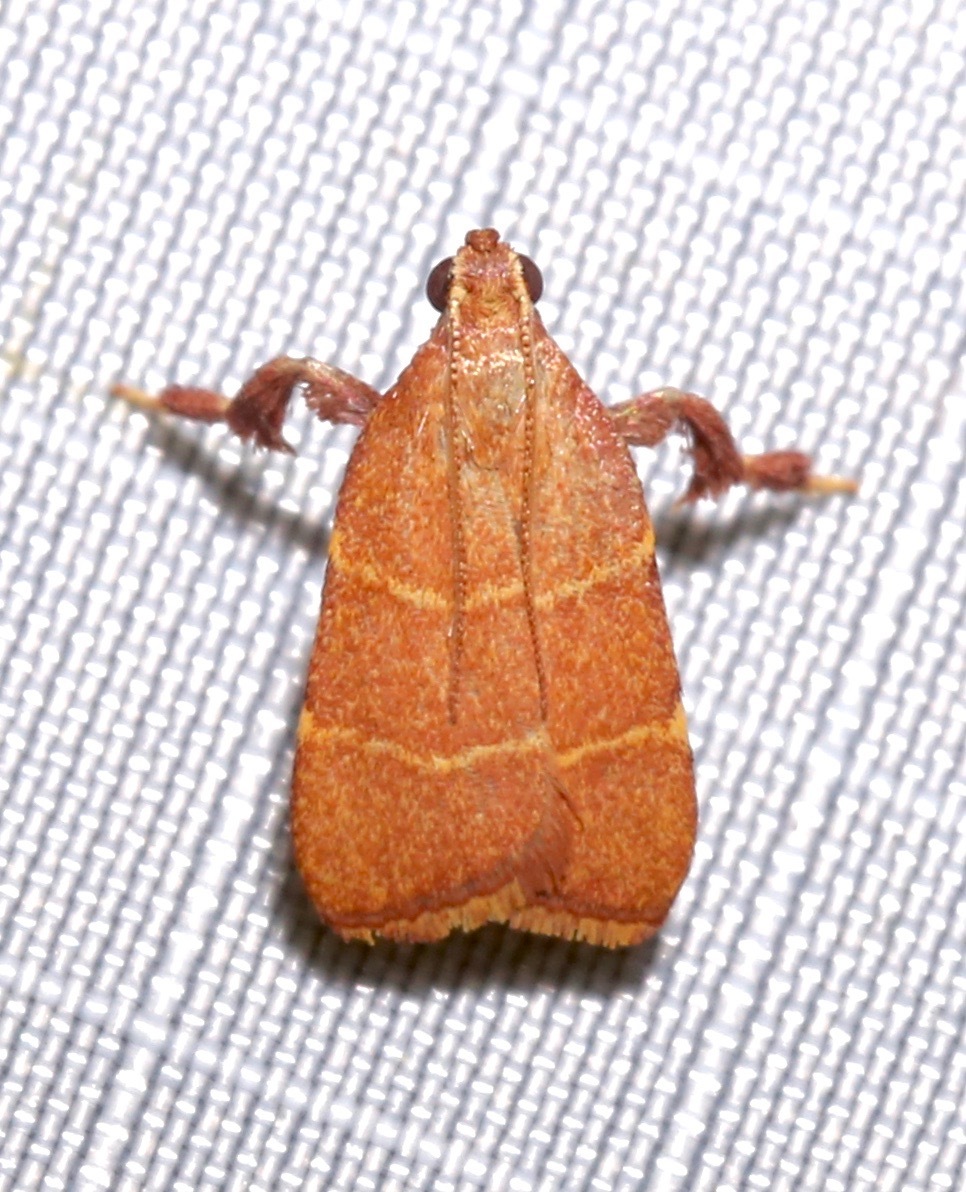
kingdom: Animalia
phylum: Arthropoda
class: Insecta
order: Lepidoptera
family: Pyralidae
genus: Parachma
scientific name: Parachma ochracealis
